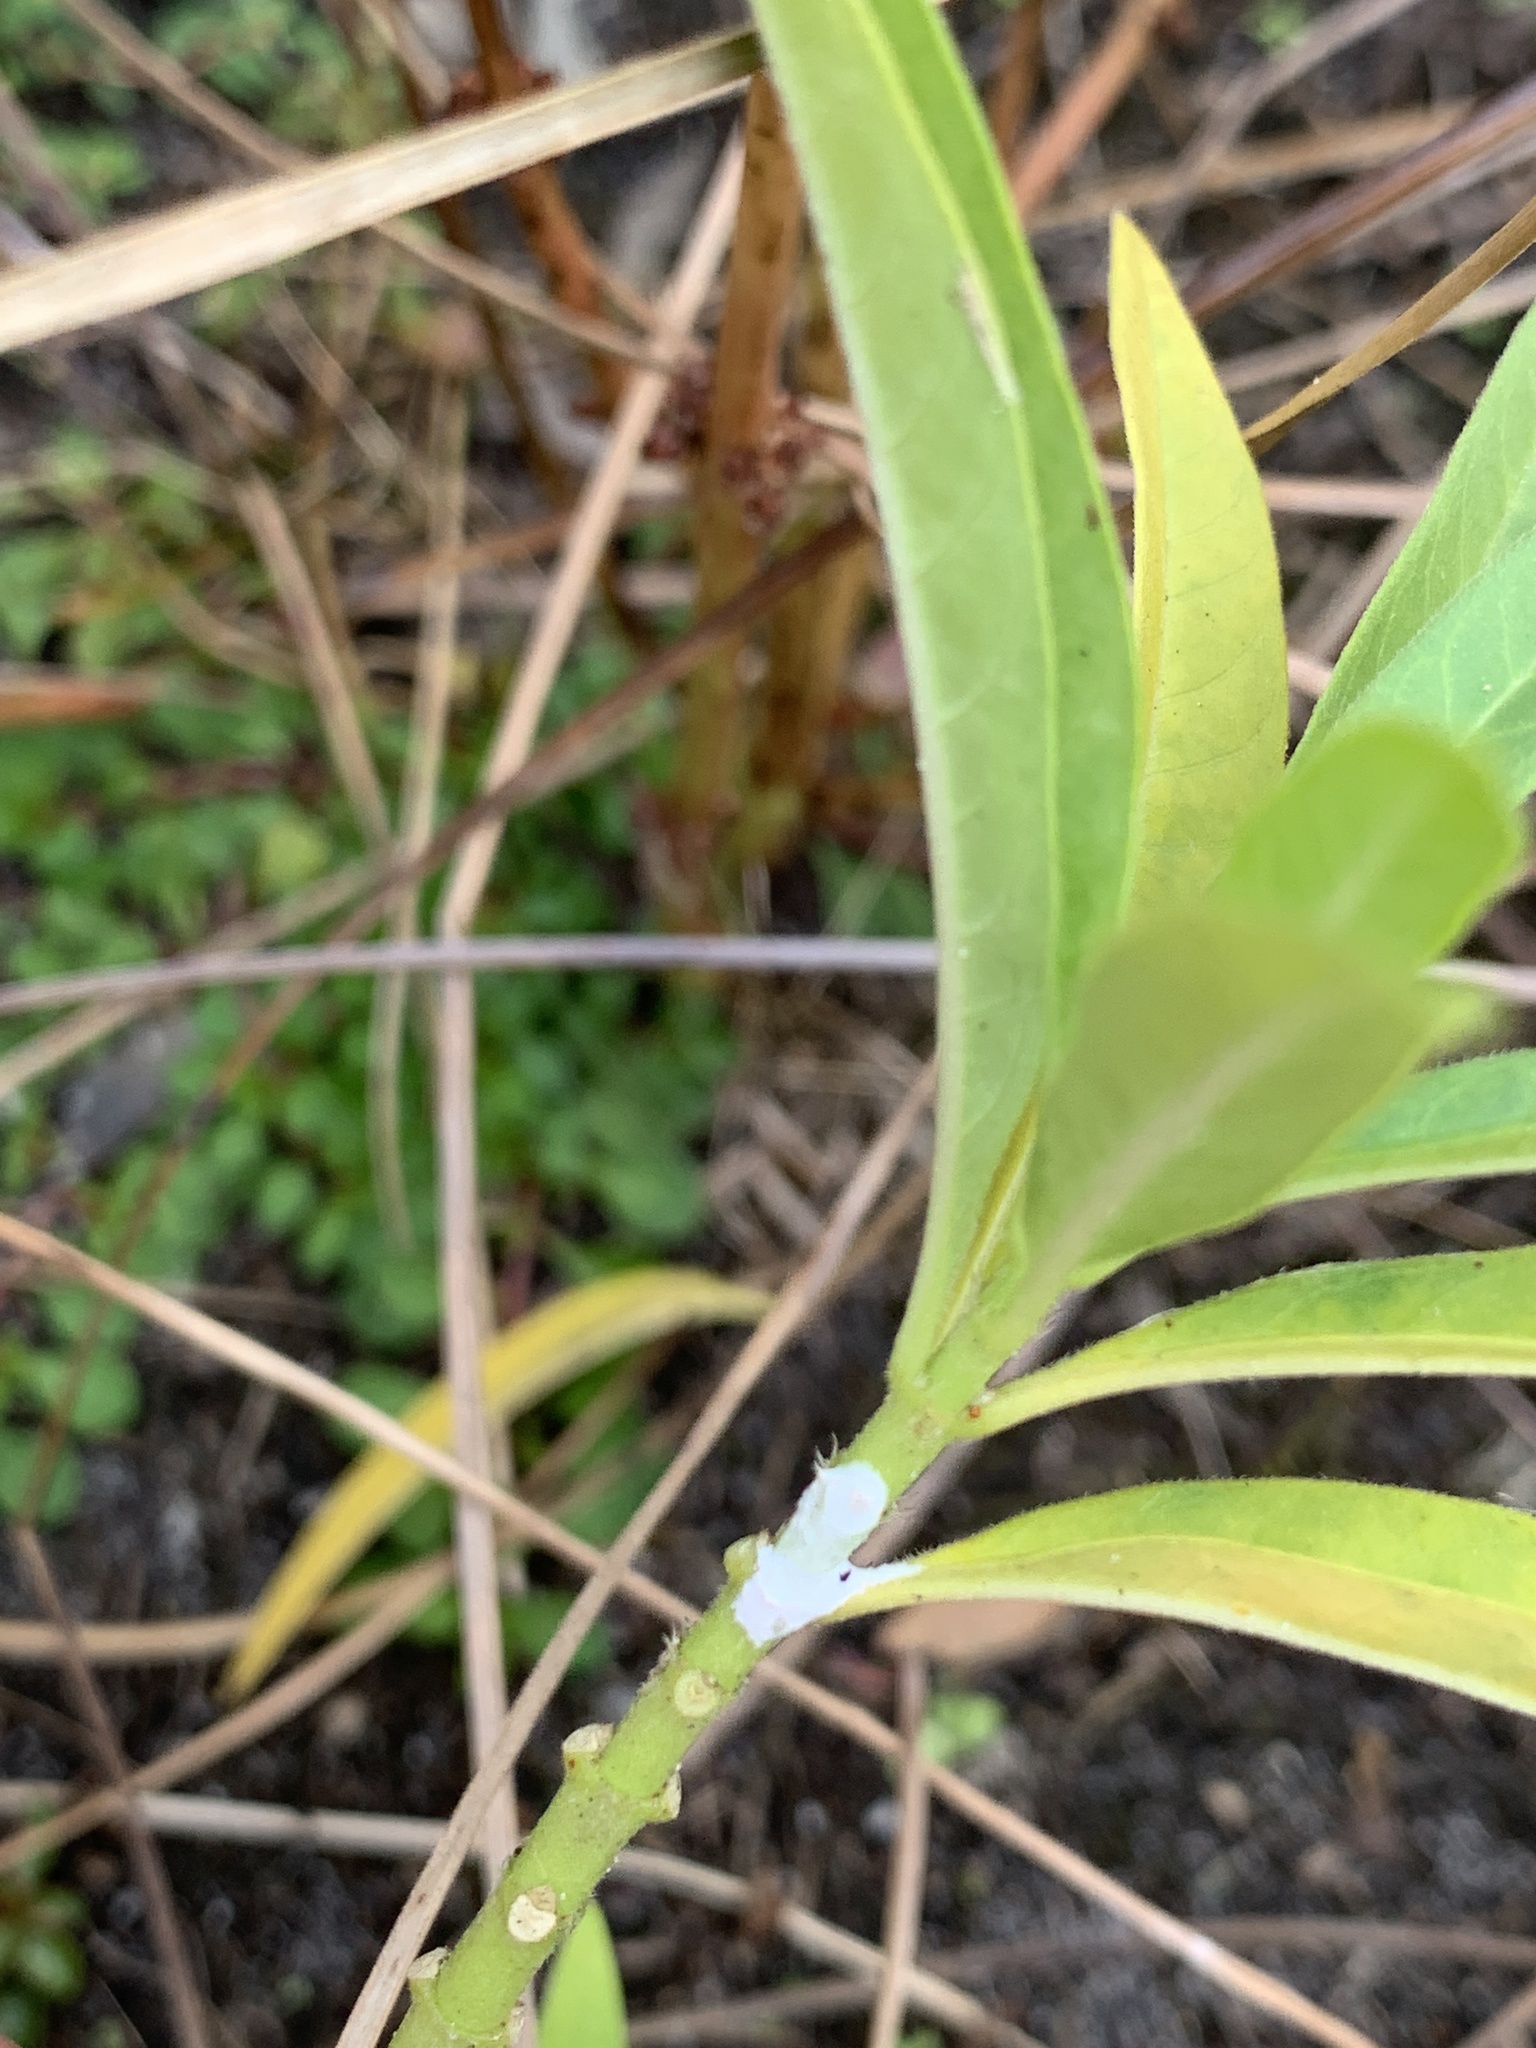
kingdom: Plantae
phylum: Tracheophyta
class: Magnoliopsida
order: Gentianales
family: Apocynaceae
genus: Asclepias
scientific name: Asclepias curassavica
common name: Bloodflower
